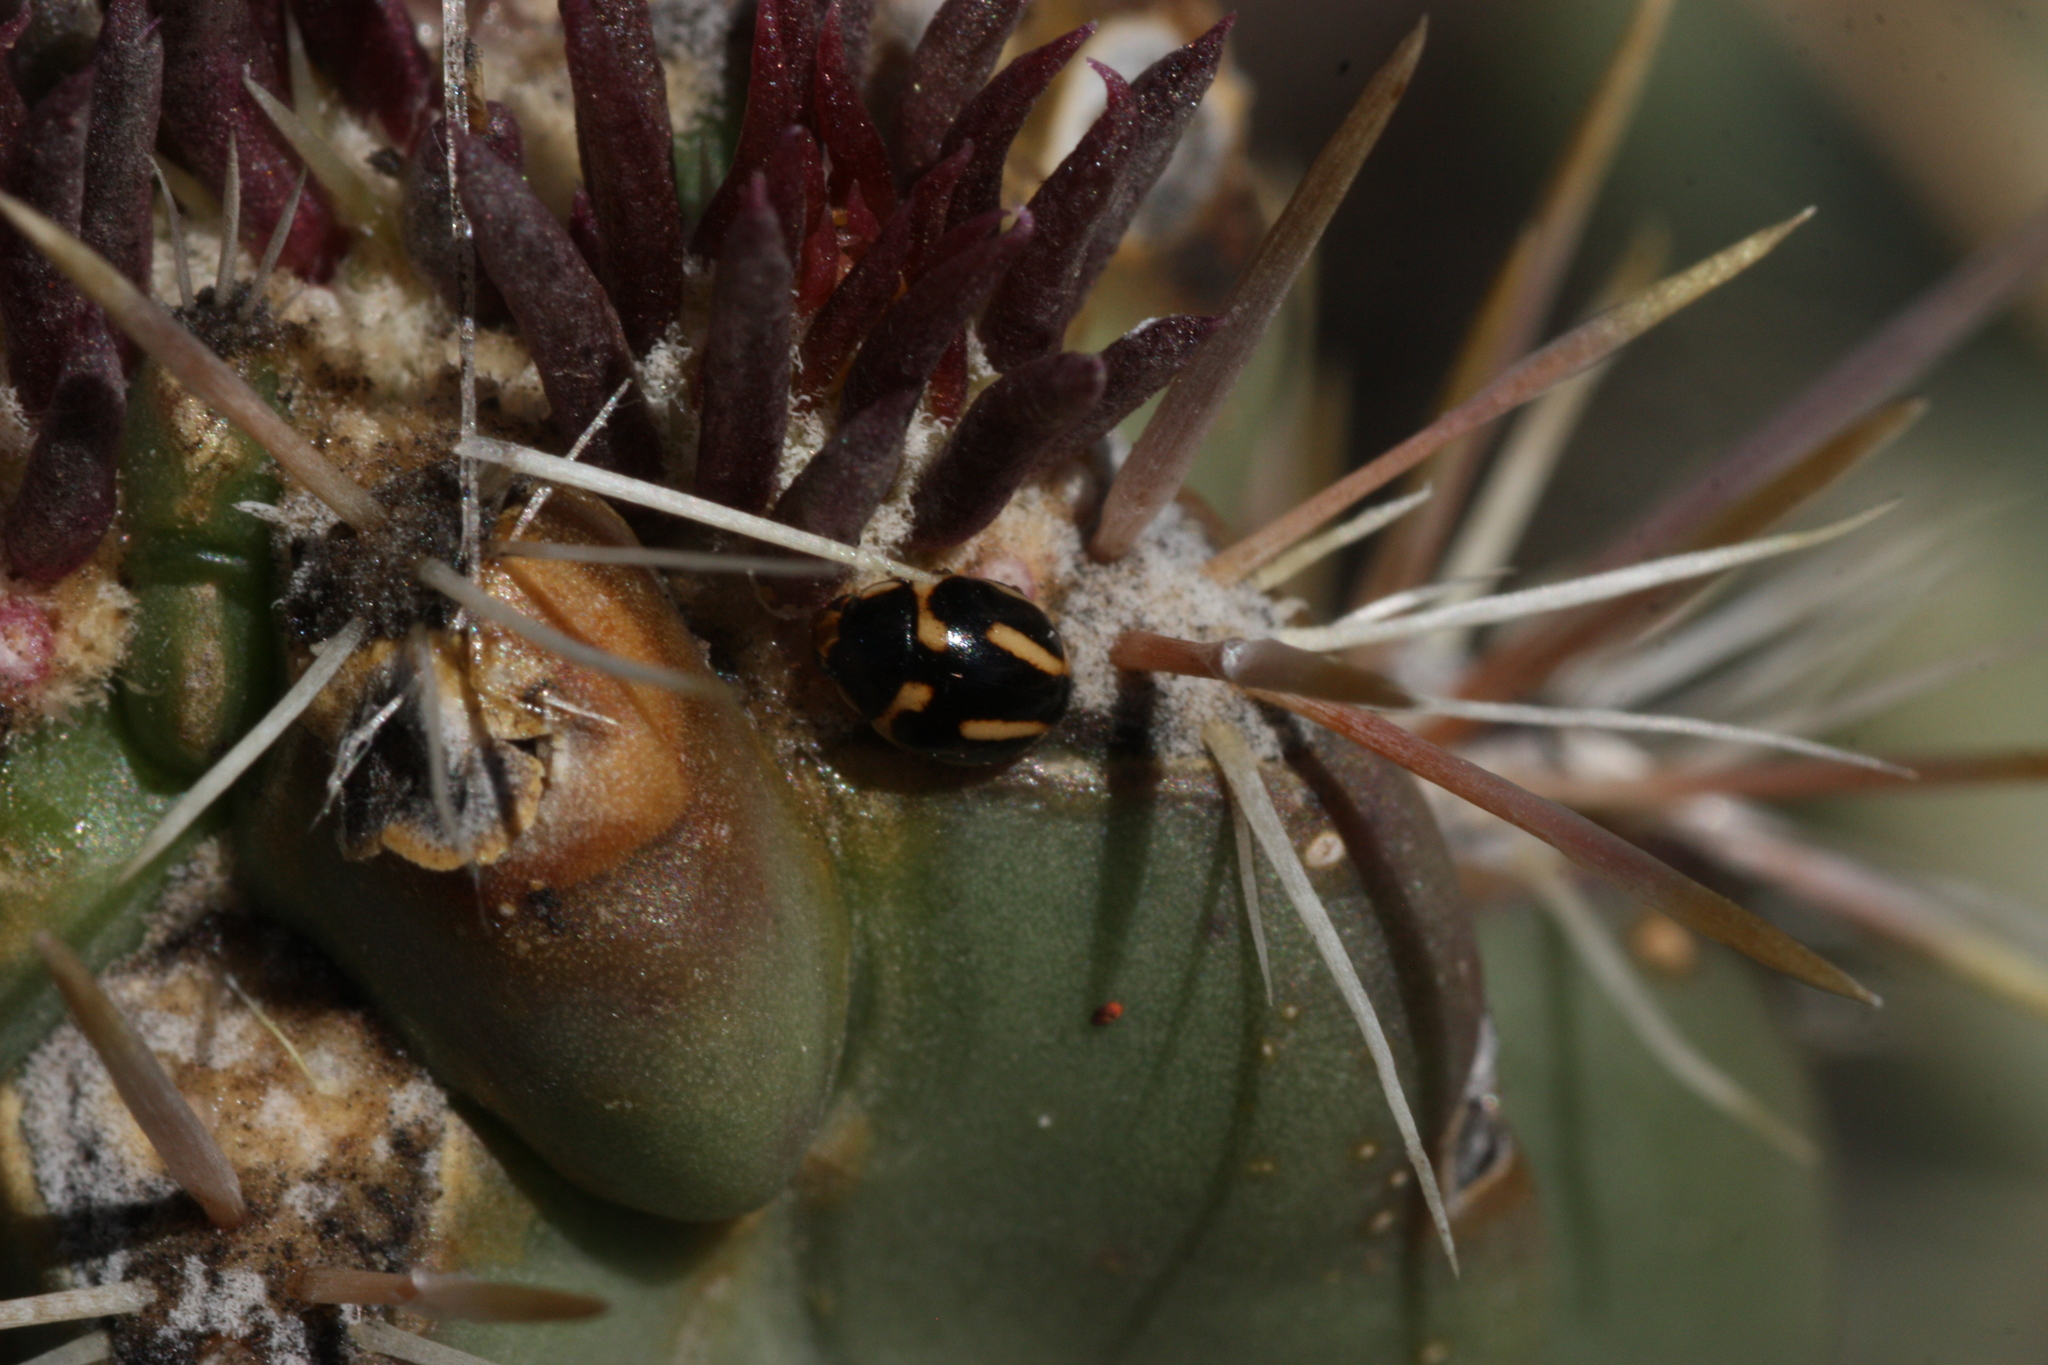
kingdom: Animalia
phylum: Arthropoda
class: Insecta
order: Coleoptera
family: Coccinellidae
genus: Hyperaspis
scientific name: Hyperaspis trifurcata
